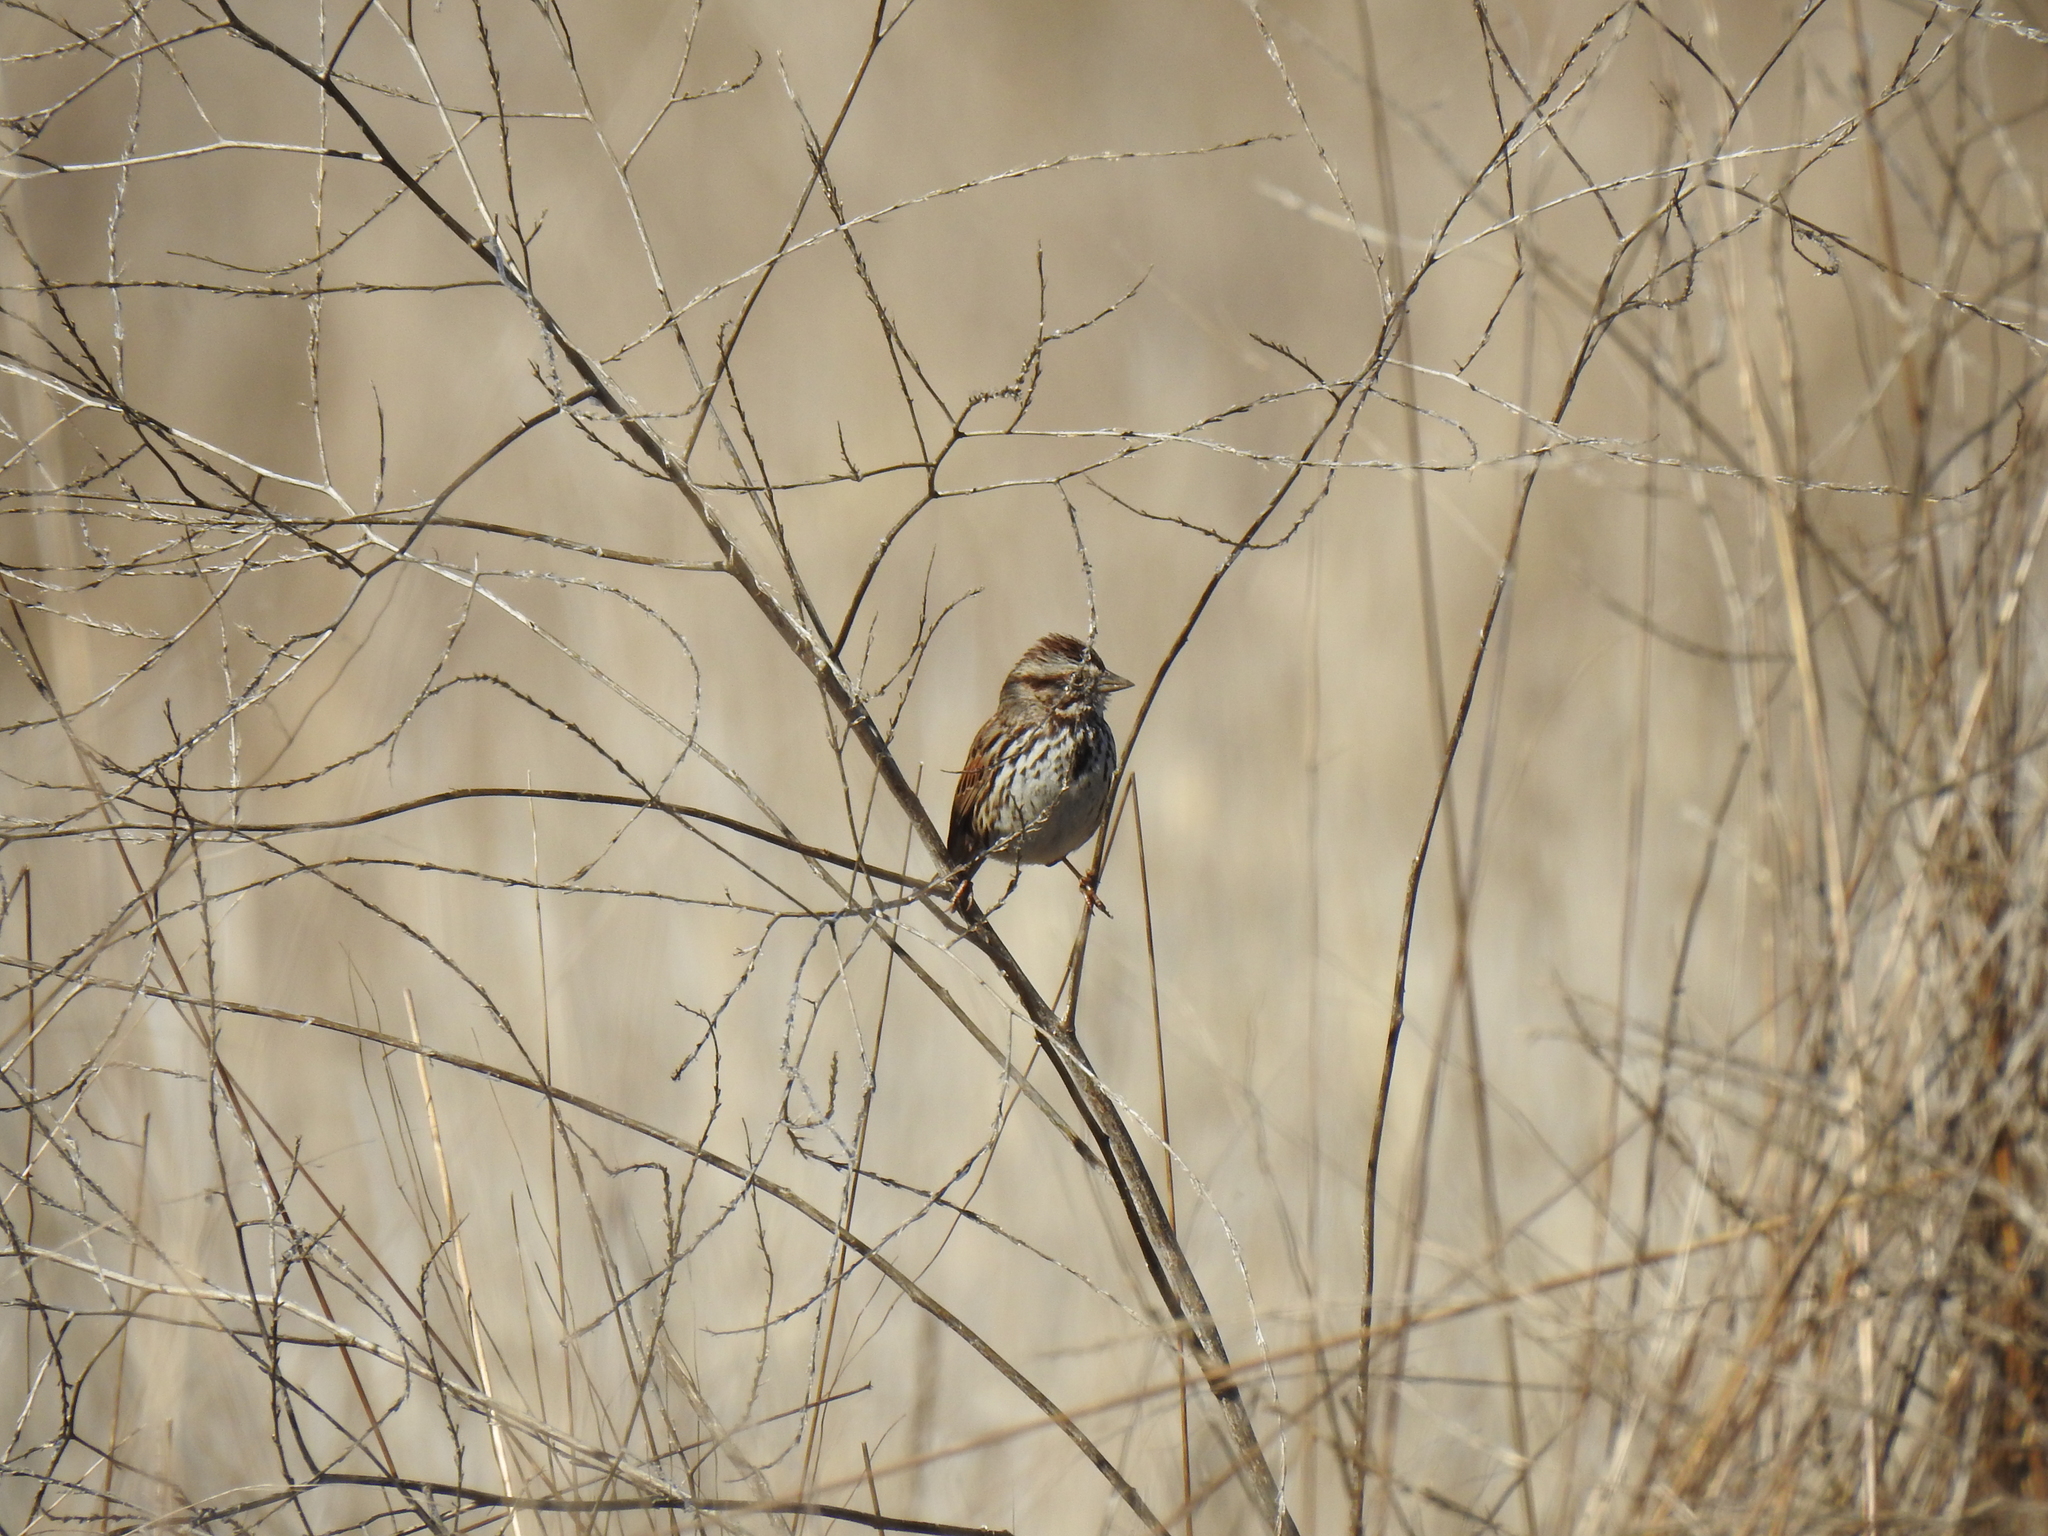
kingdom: Animalia
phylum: Chordata
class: Aves
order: Passeriformes
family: Passerellidae
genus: Melospiza
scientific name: Melospiza melodia
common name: Song sparrow
